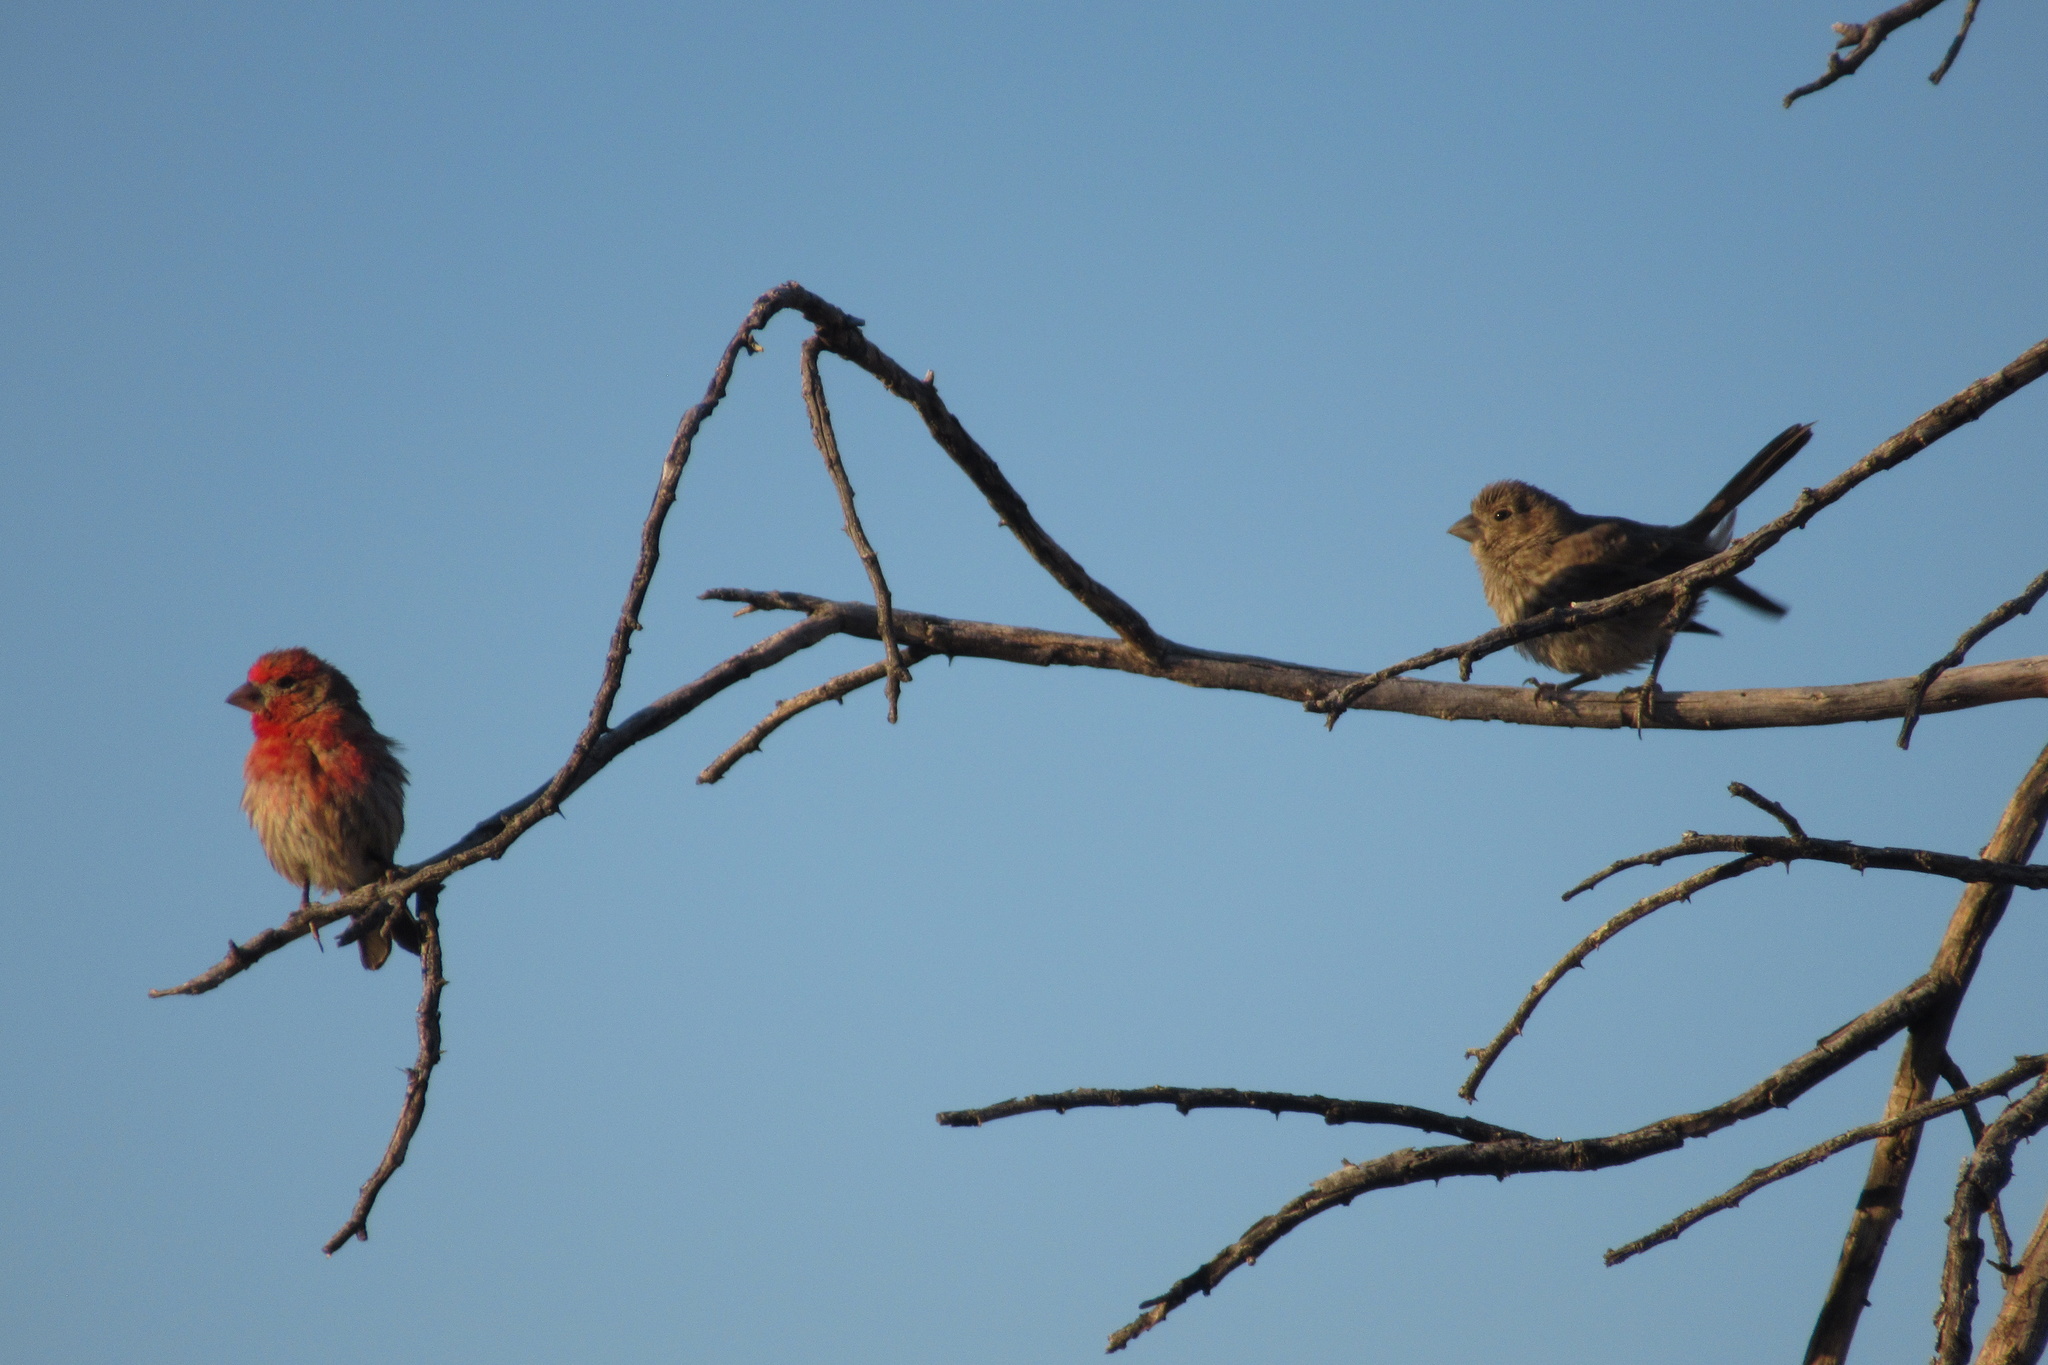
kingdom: Animalia
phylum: Chordata
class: Aves
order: Passeriformes
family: Fringillidae
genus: Haemorhous
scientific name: Haemorhous mexicanus
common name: House finch
